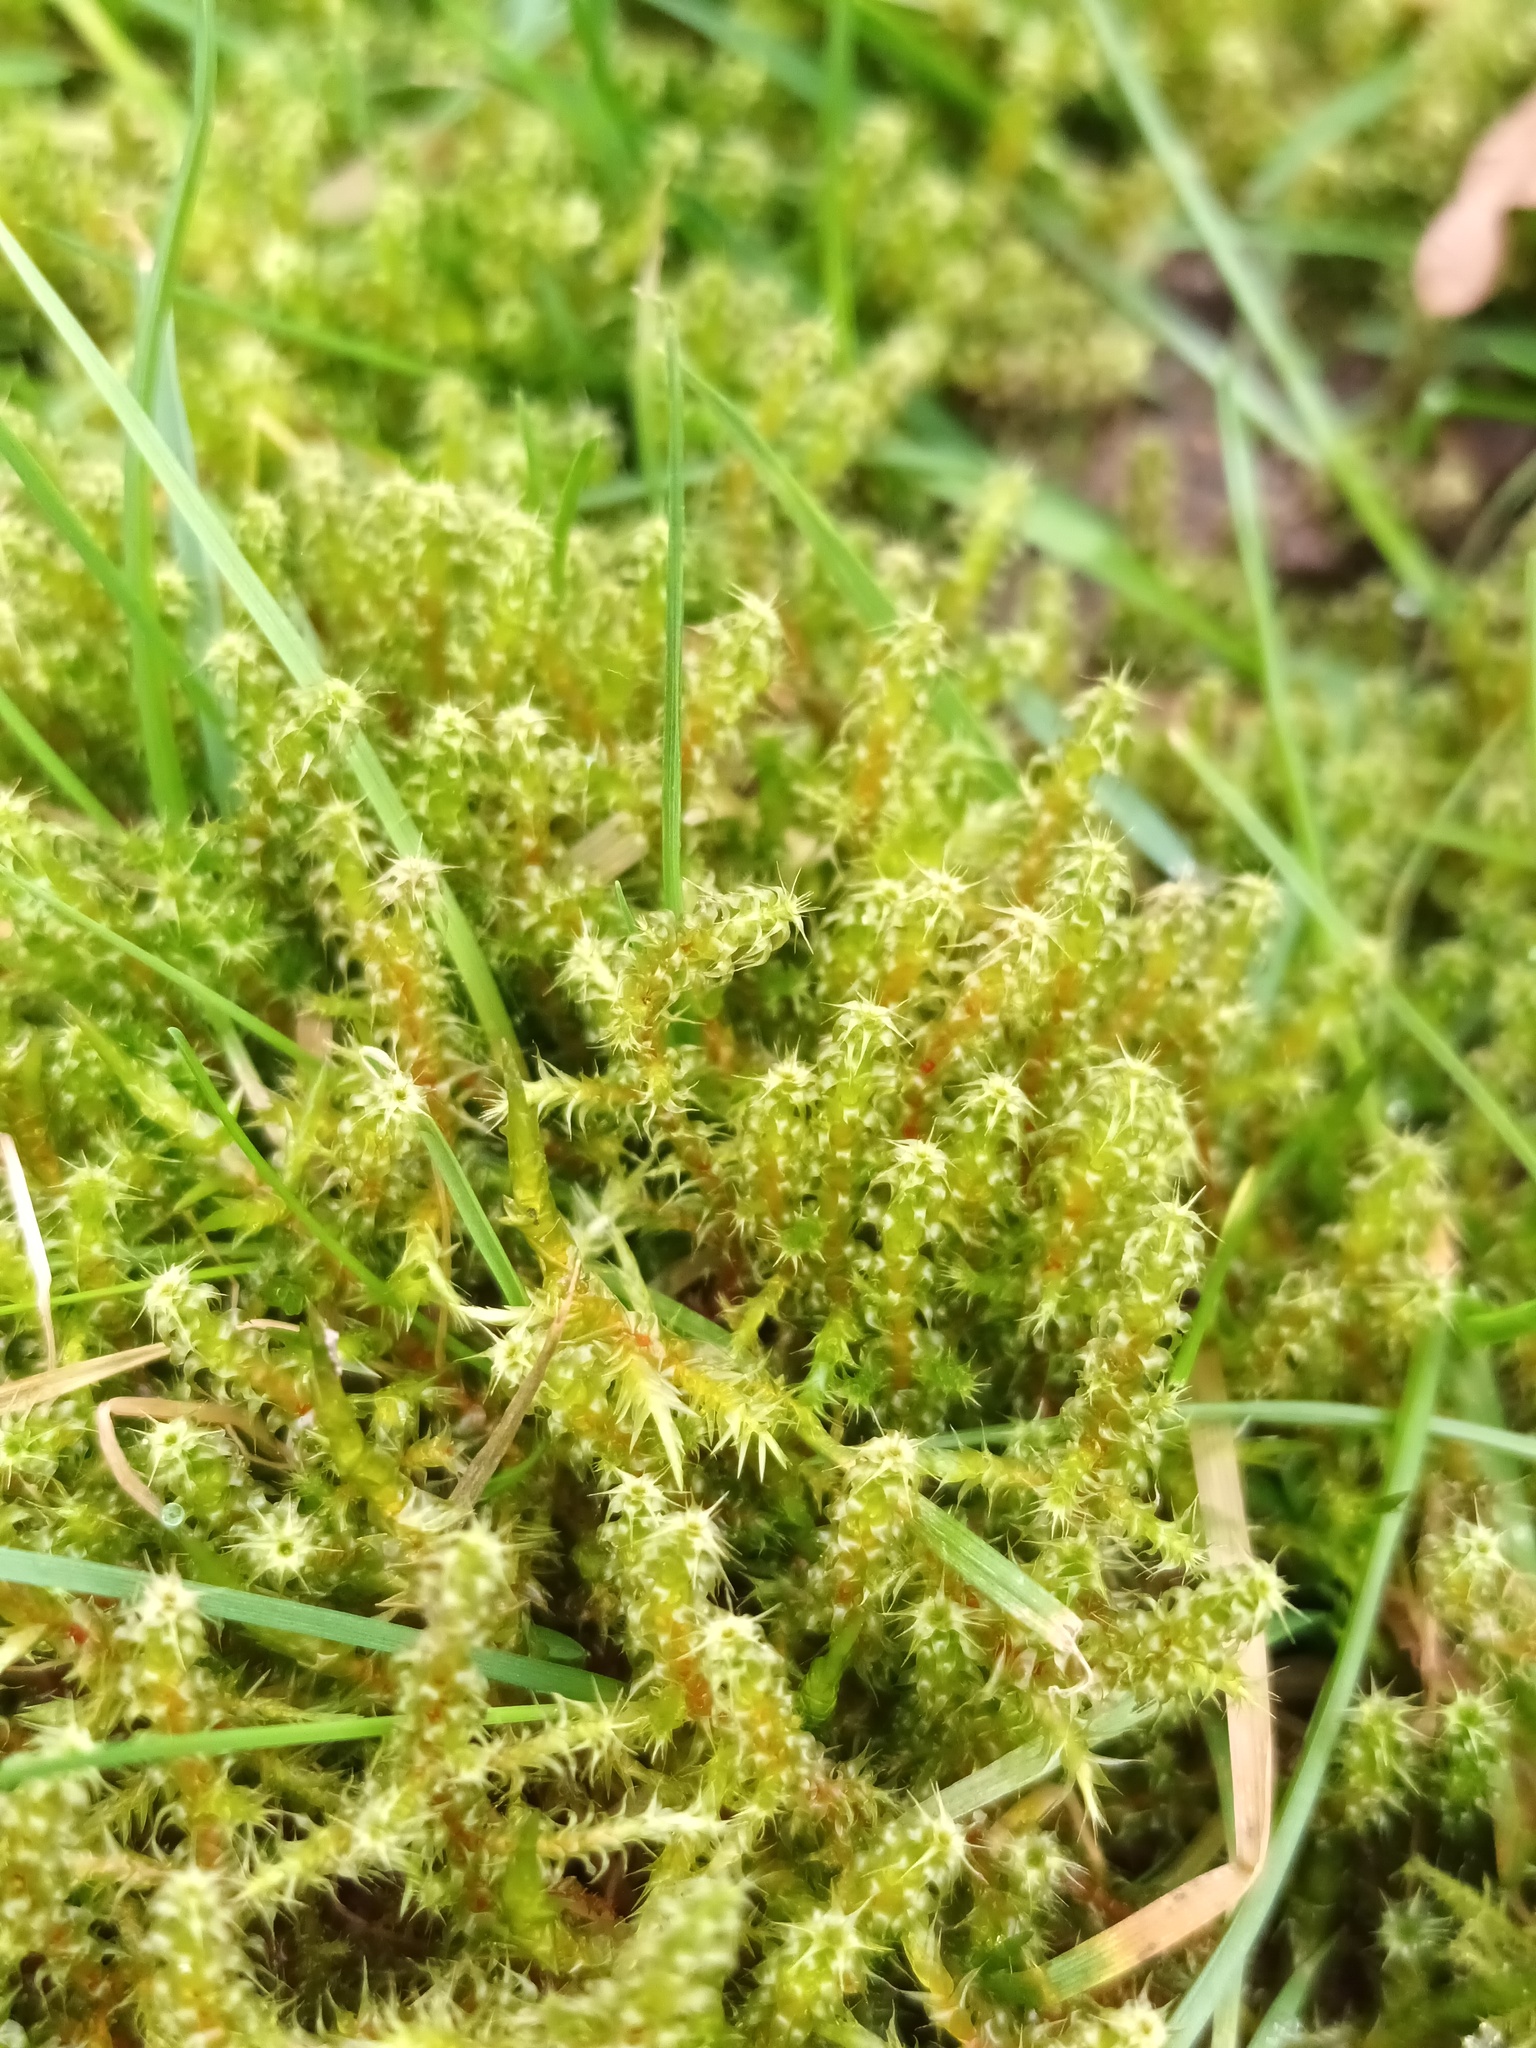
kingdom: Plantae
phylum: Bryophyta
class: Bryopsida
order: Hypnales
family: Hylocomiaceae
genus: Rhytidiadelphus
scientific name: Rhytidiadelphus squarrosus
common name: Springy turf-moss
